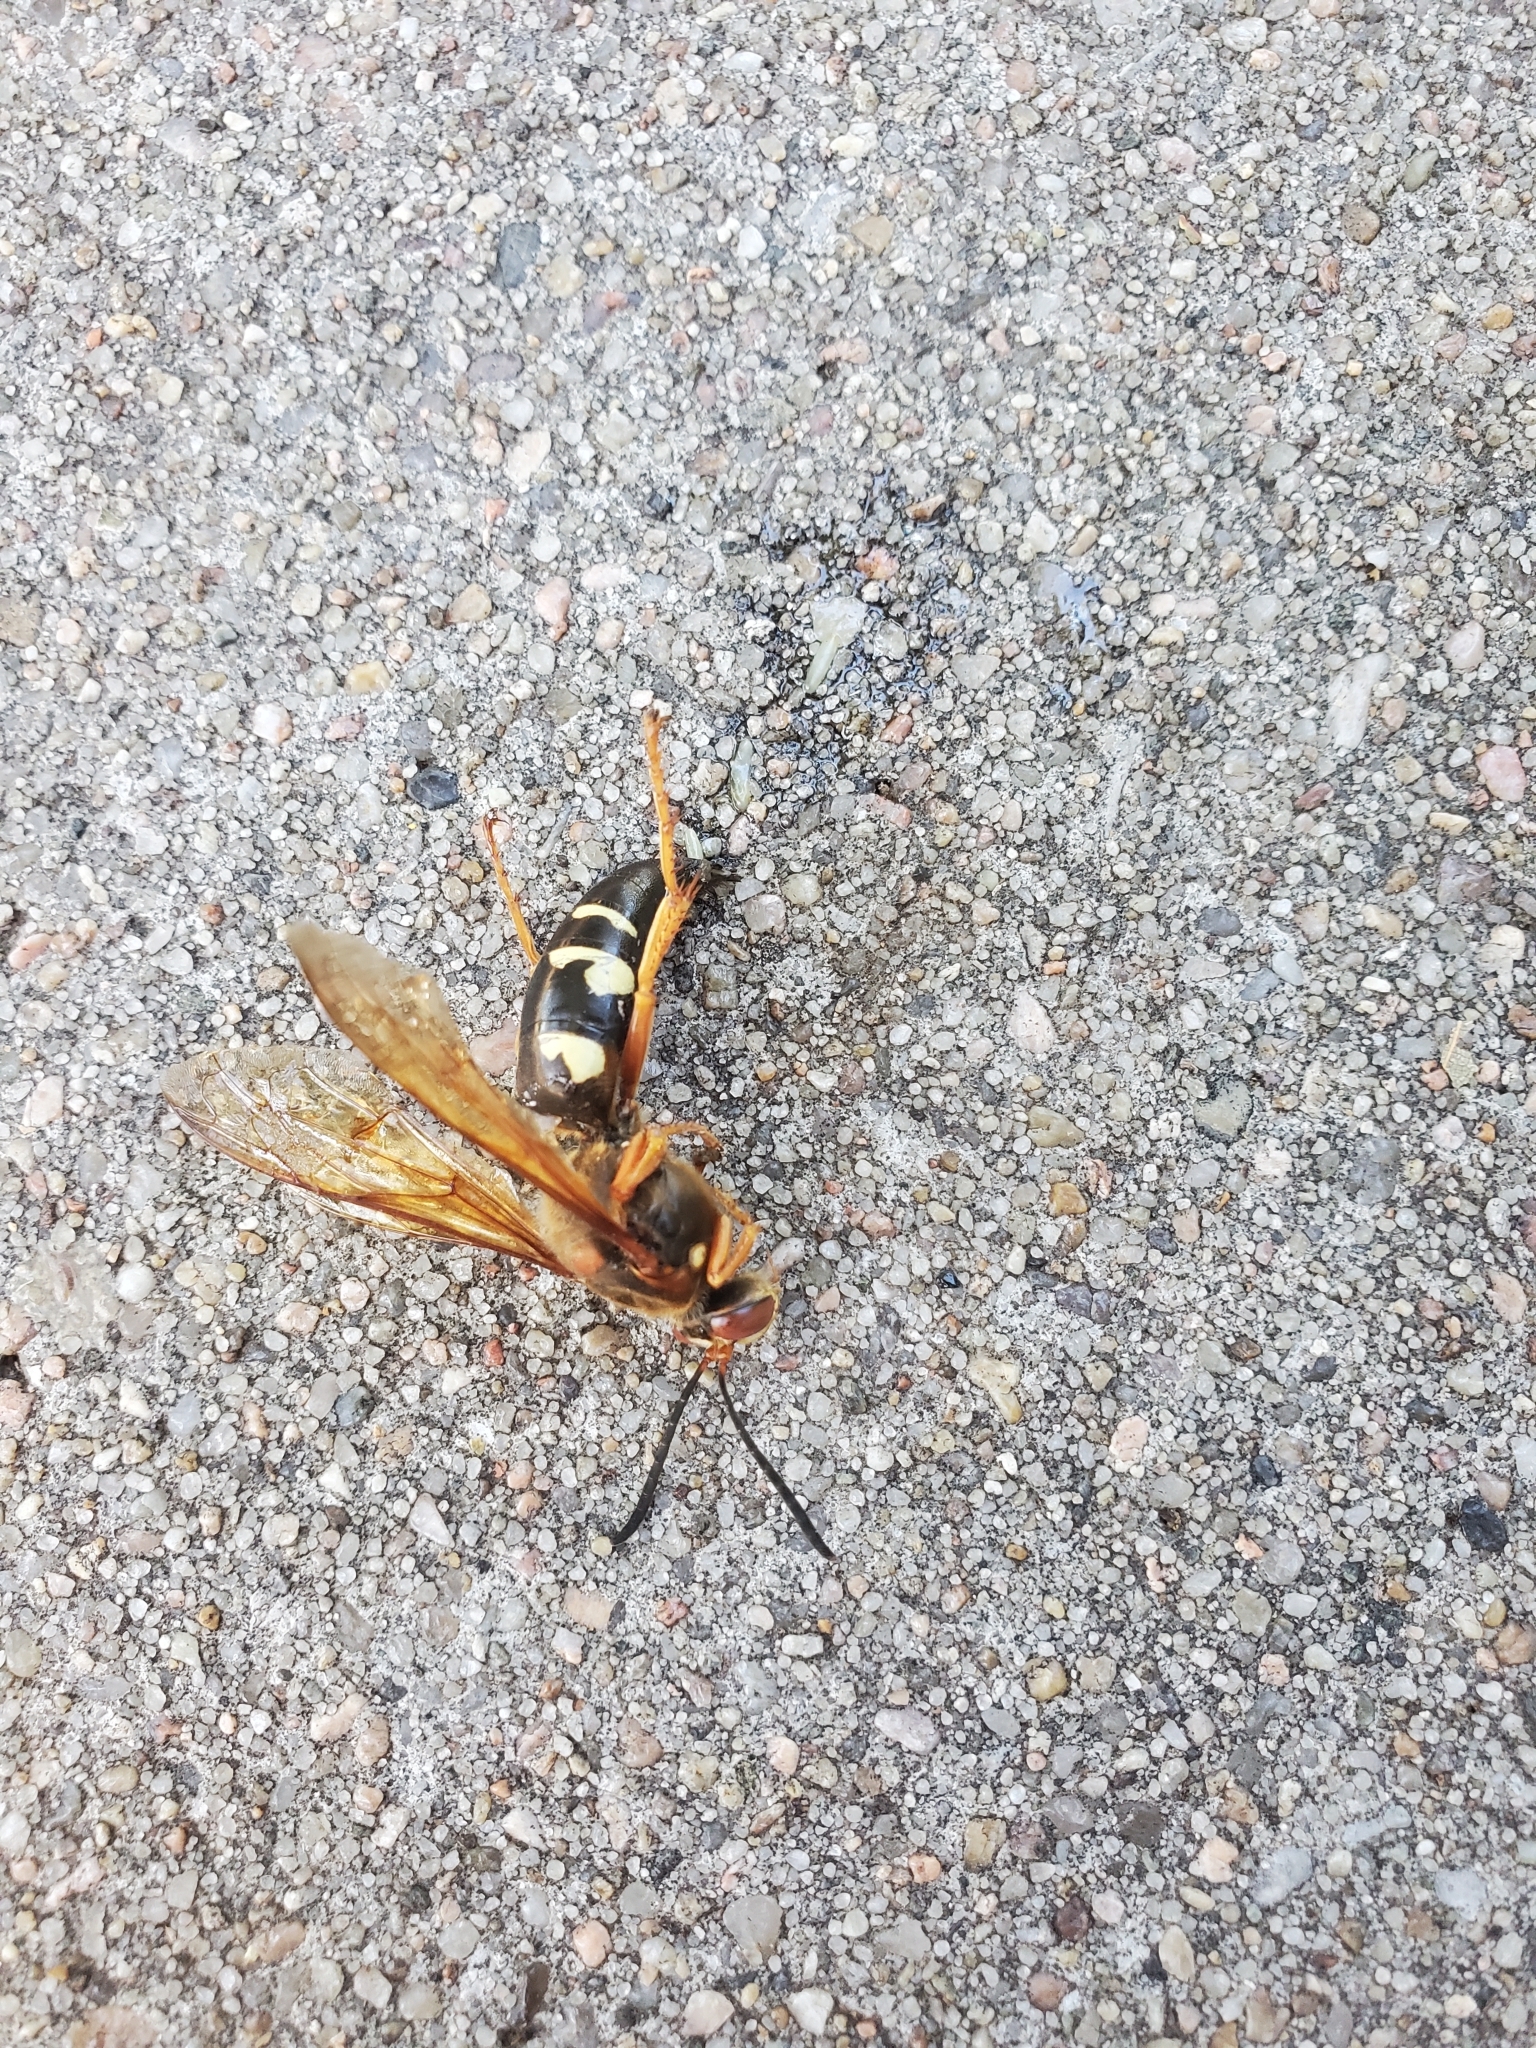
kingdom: Animalia
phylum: Arthropoda
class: Insecta
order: Hymenoptera
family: Crabronidae
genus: Sphecius
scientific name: Sphecius speciosus
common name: Cicada killer
